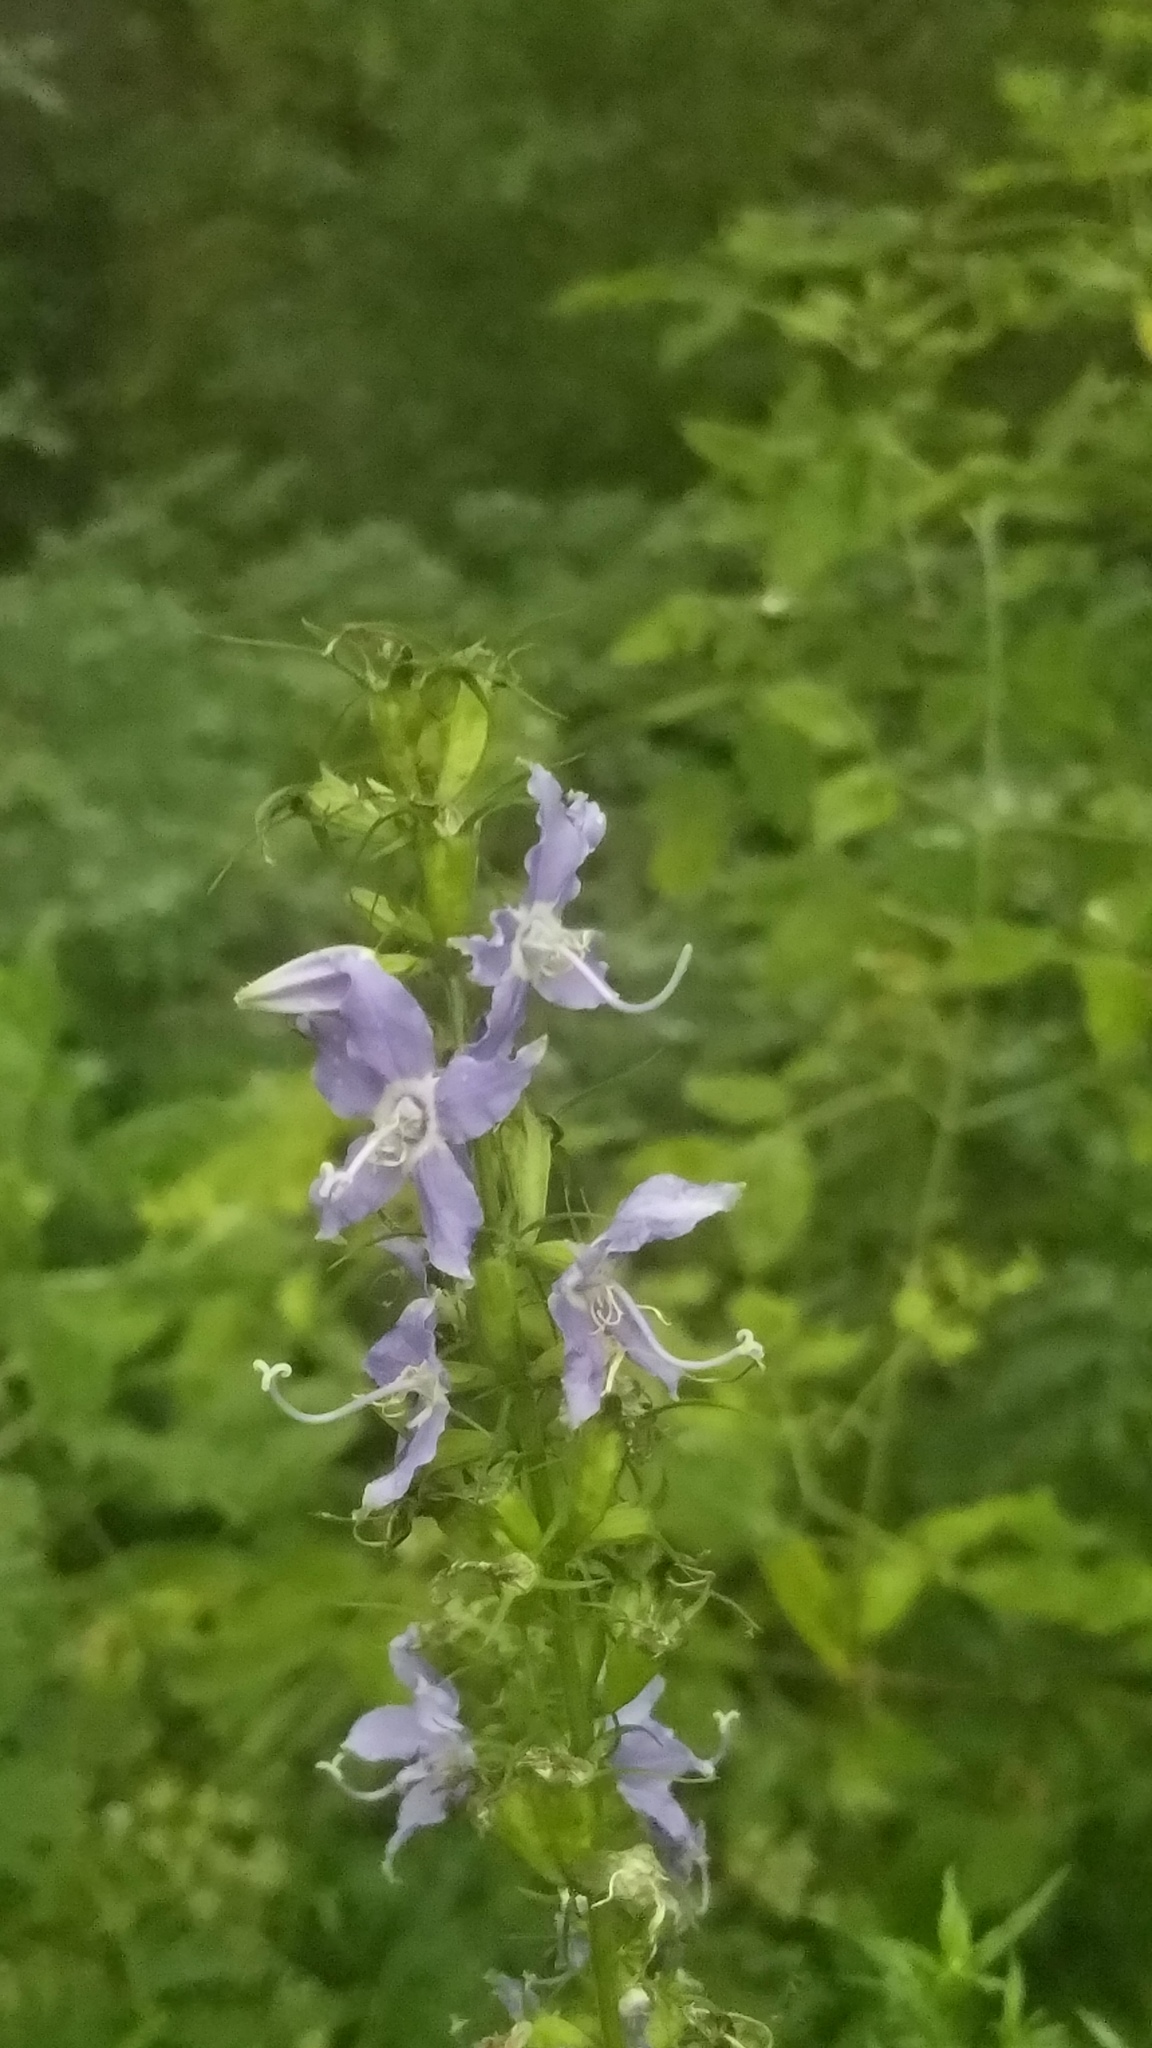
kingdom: Plantae
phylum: Tracheophyta
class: Magnoliopsida
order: Asterales
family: Campanulaceae
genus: Campanulastrum
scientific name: Campanulastrum americanum
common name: American bellflower
